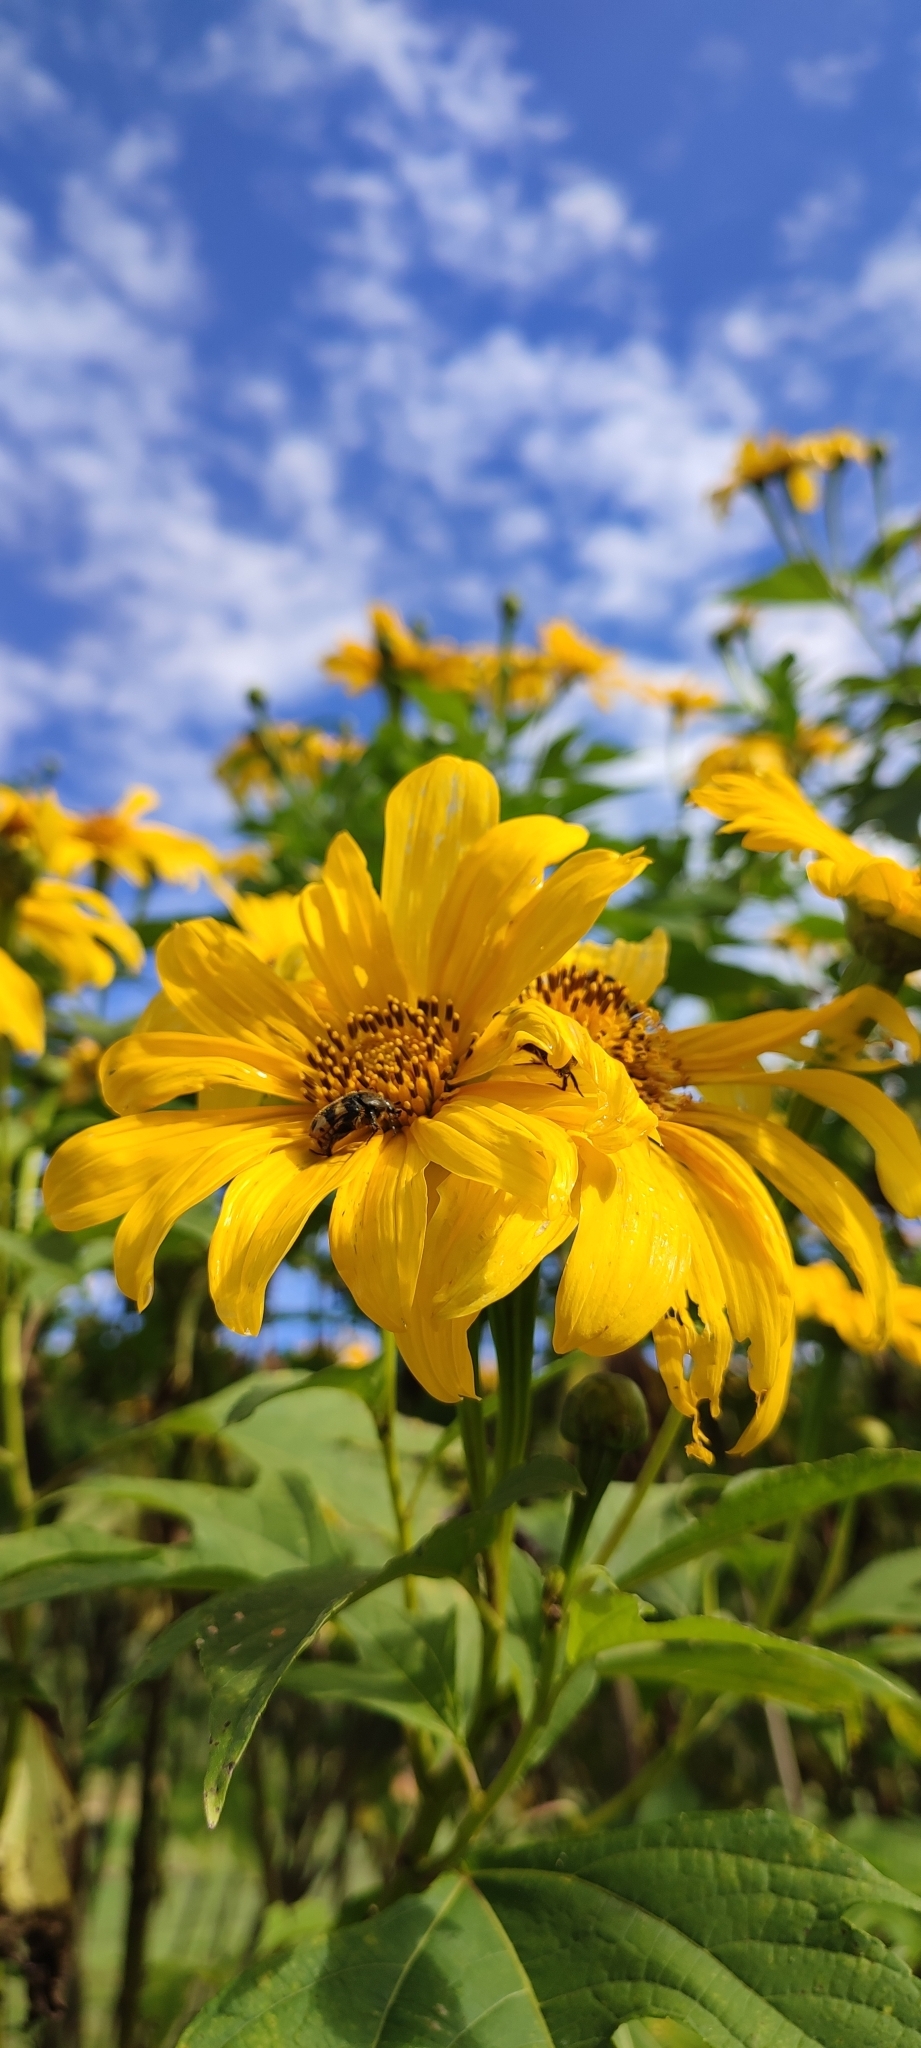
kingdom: Animalia
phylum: Arthropoda
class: Insecta
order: Coleoptera
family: Scarabaeidae
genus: Euphoria
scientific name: Euphoria basalis
